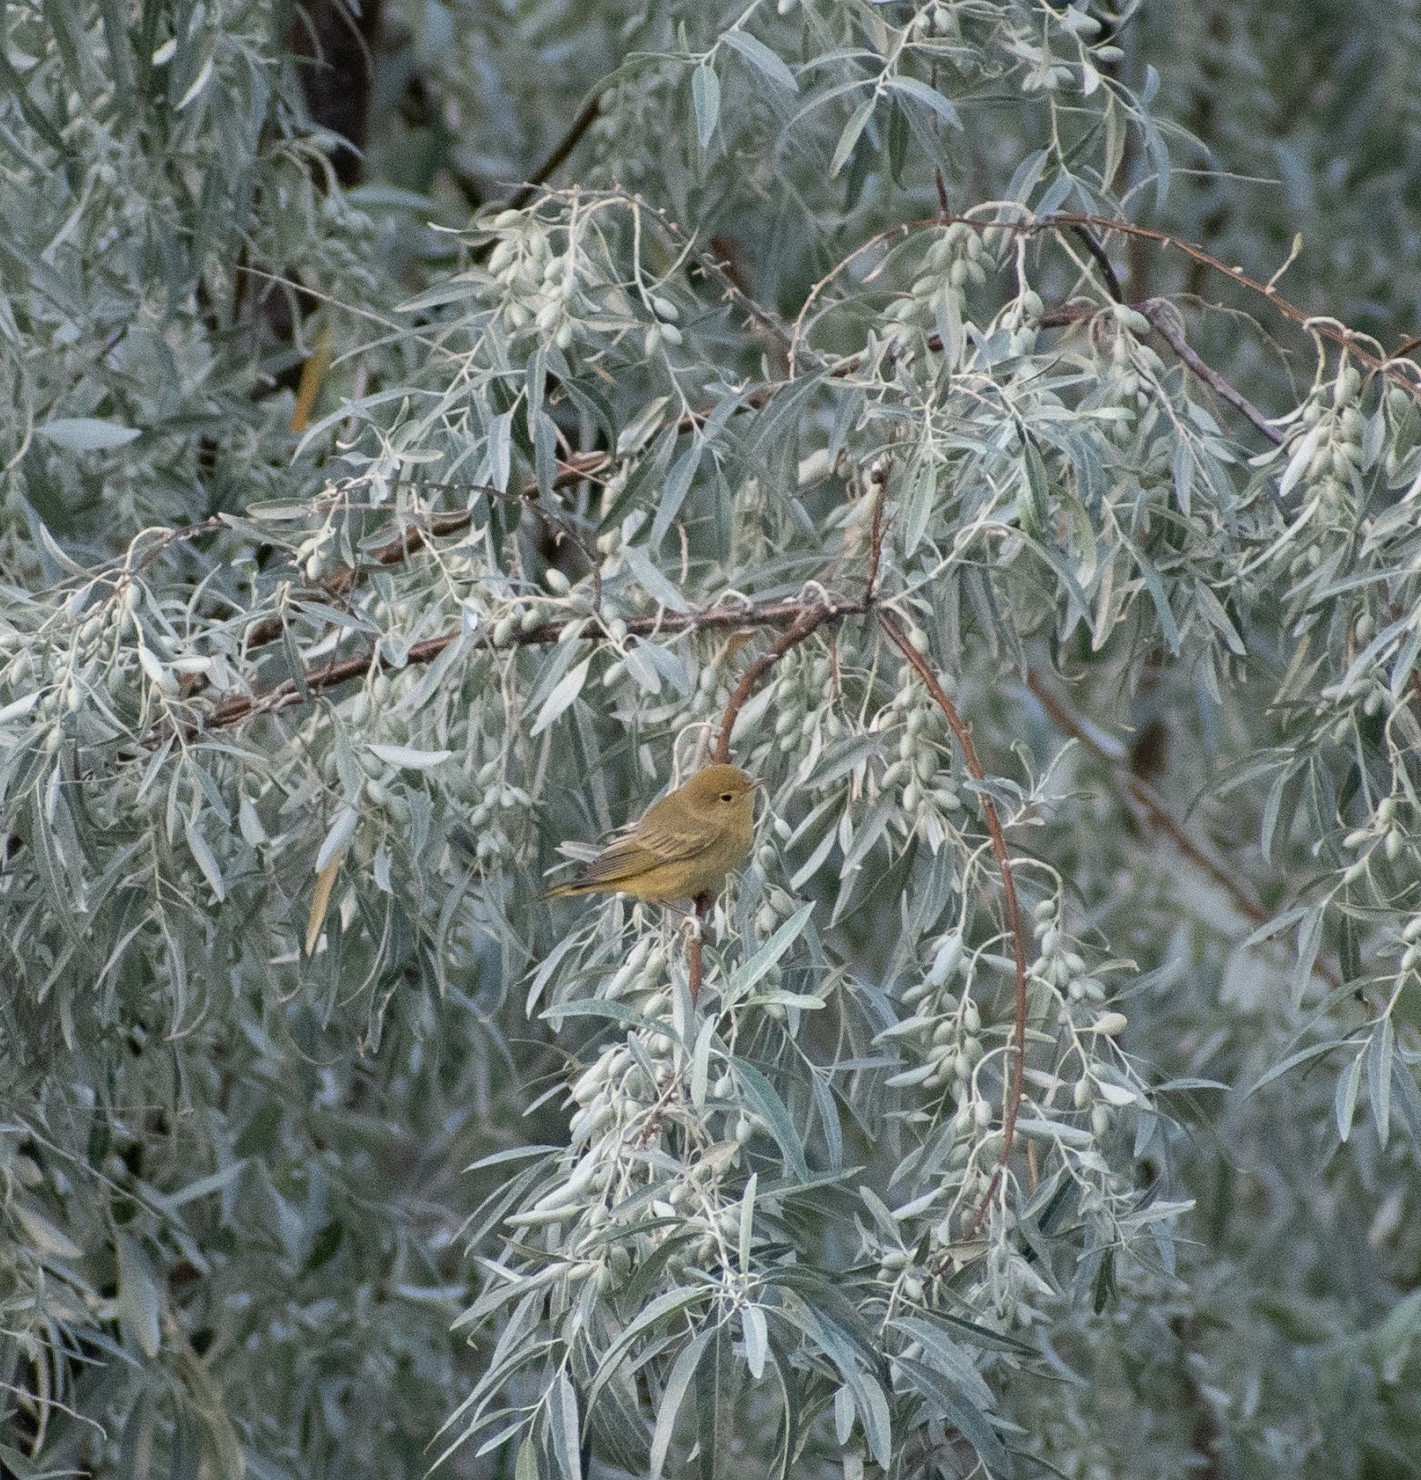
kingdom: Animalia
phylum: Chordata
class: Aves
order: Passeriformes
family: Parulidae
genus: Setophaga
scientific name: Setophaga petechia
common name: Yellow warbler
